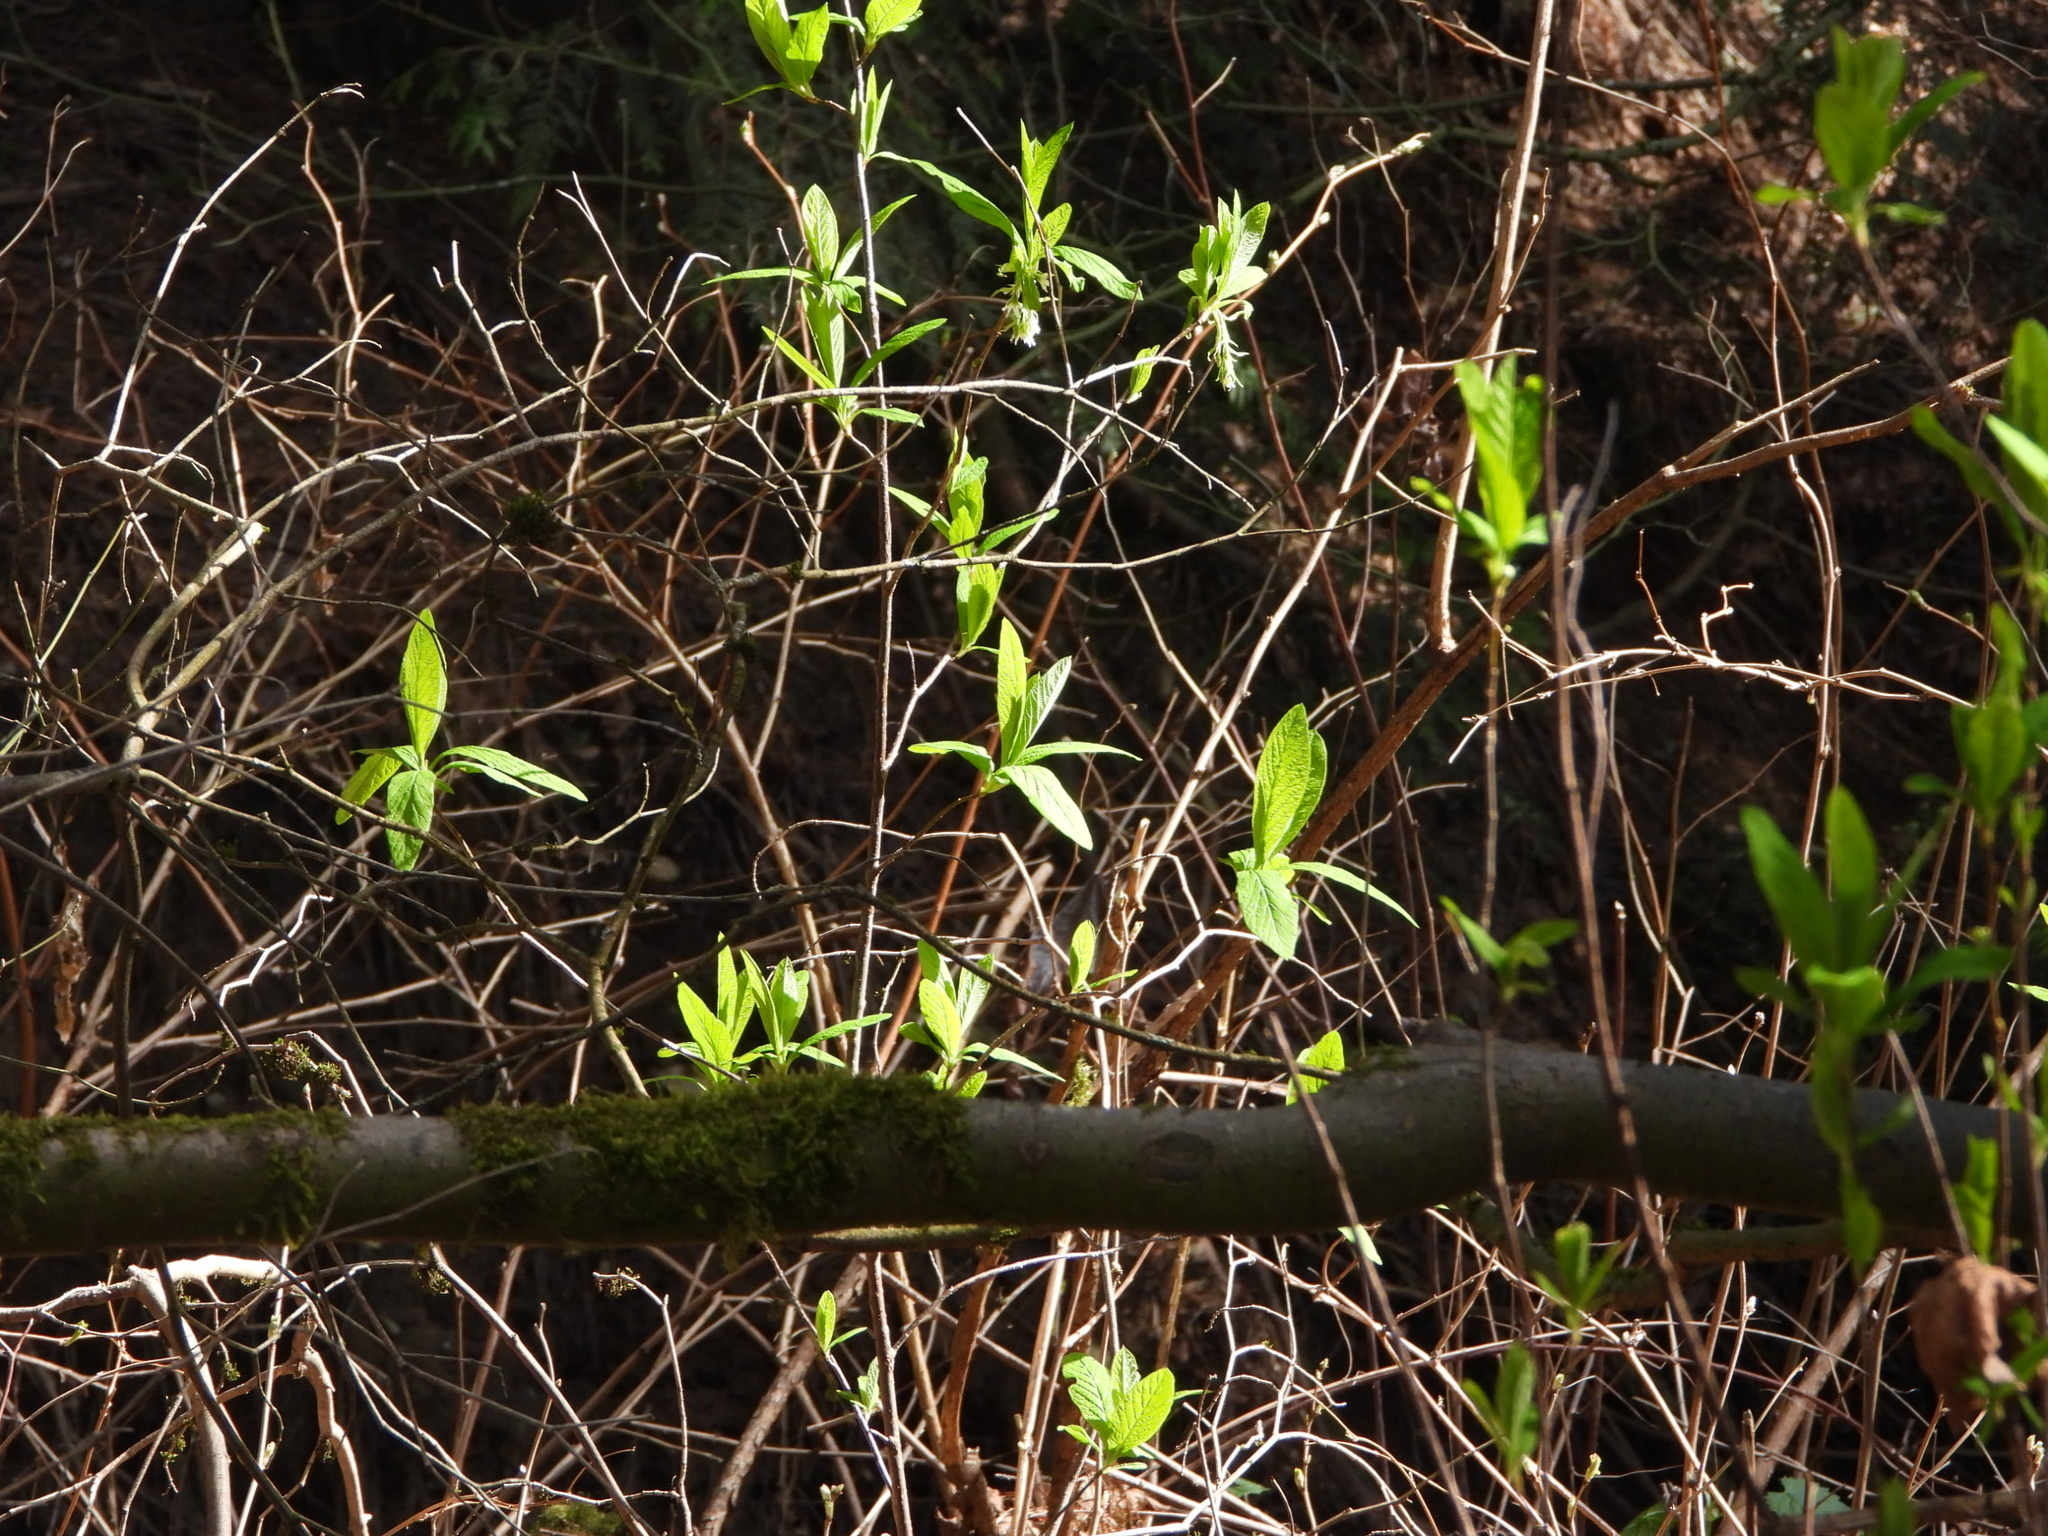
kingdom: Plantae
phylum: Tracheophyta
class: Magnoliopsida
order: Rosales
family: Rosaceae
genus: Oemleria
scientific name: Oemleria cerasiformis
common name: Osoberry
